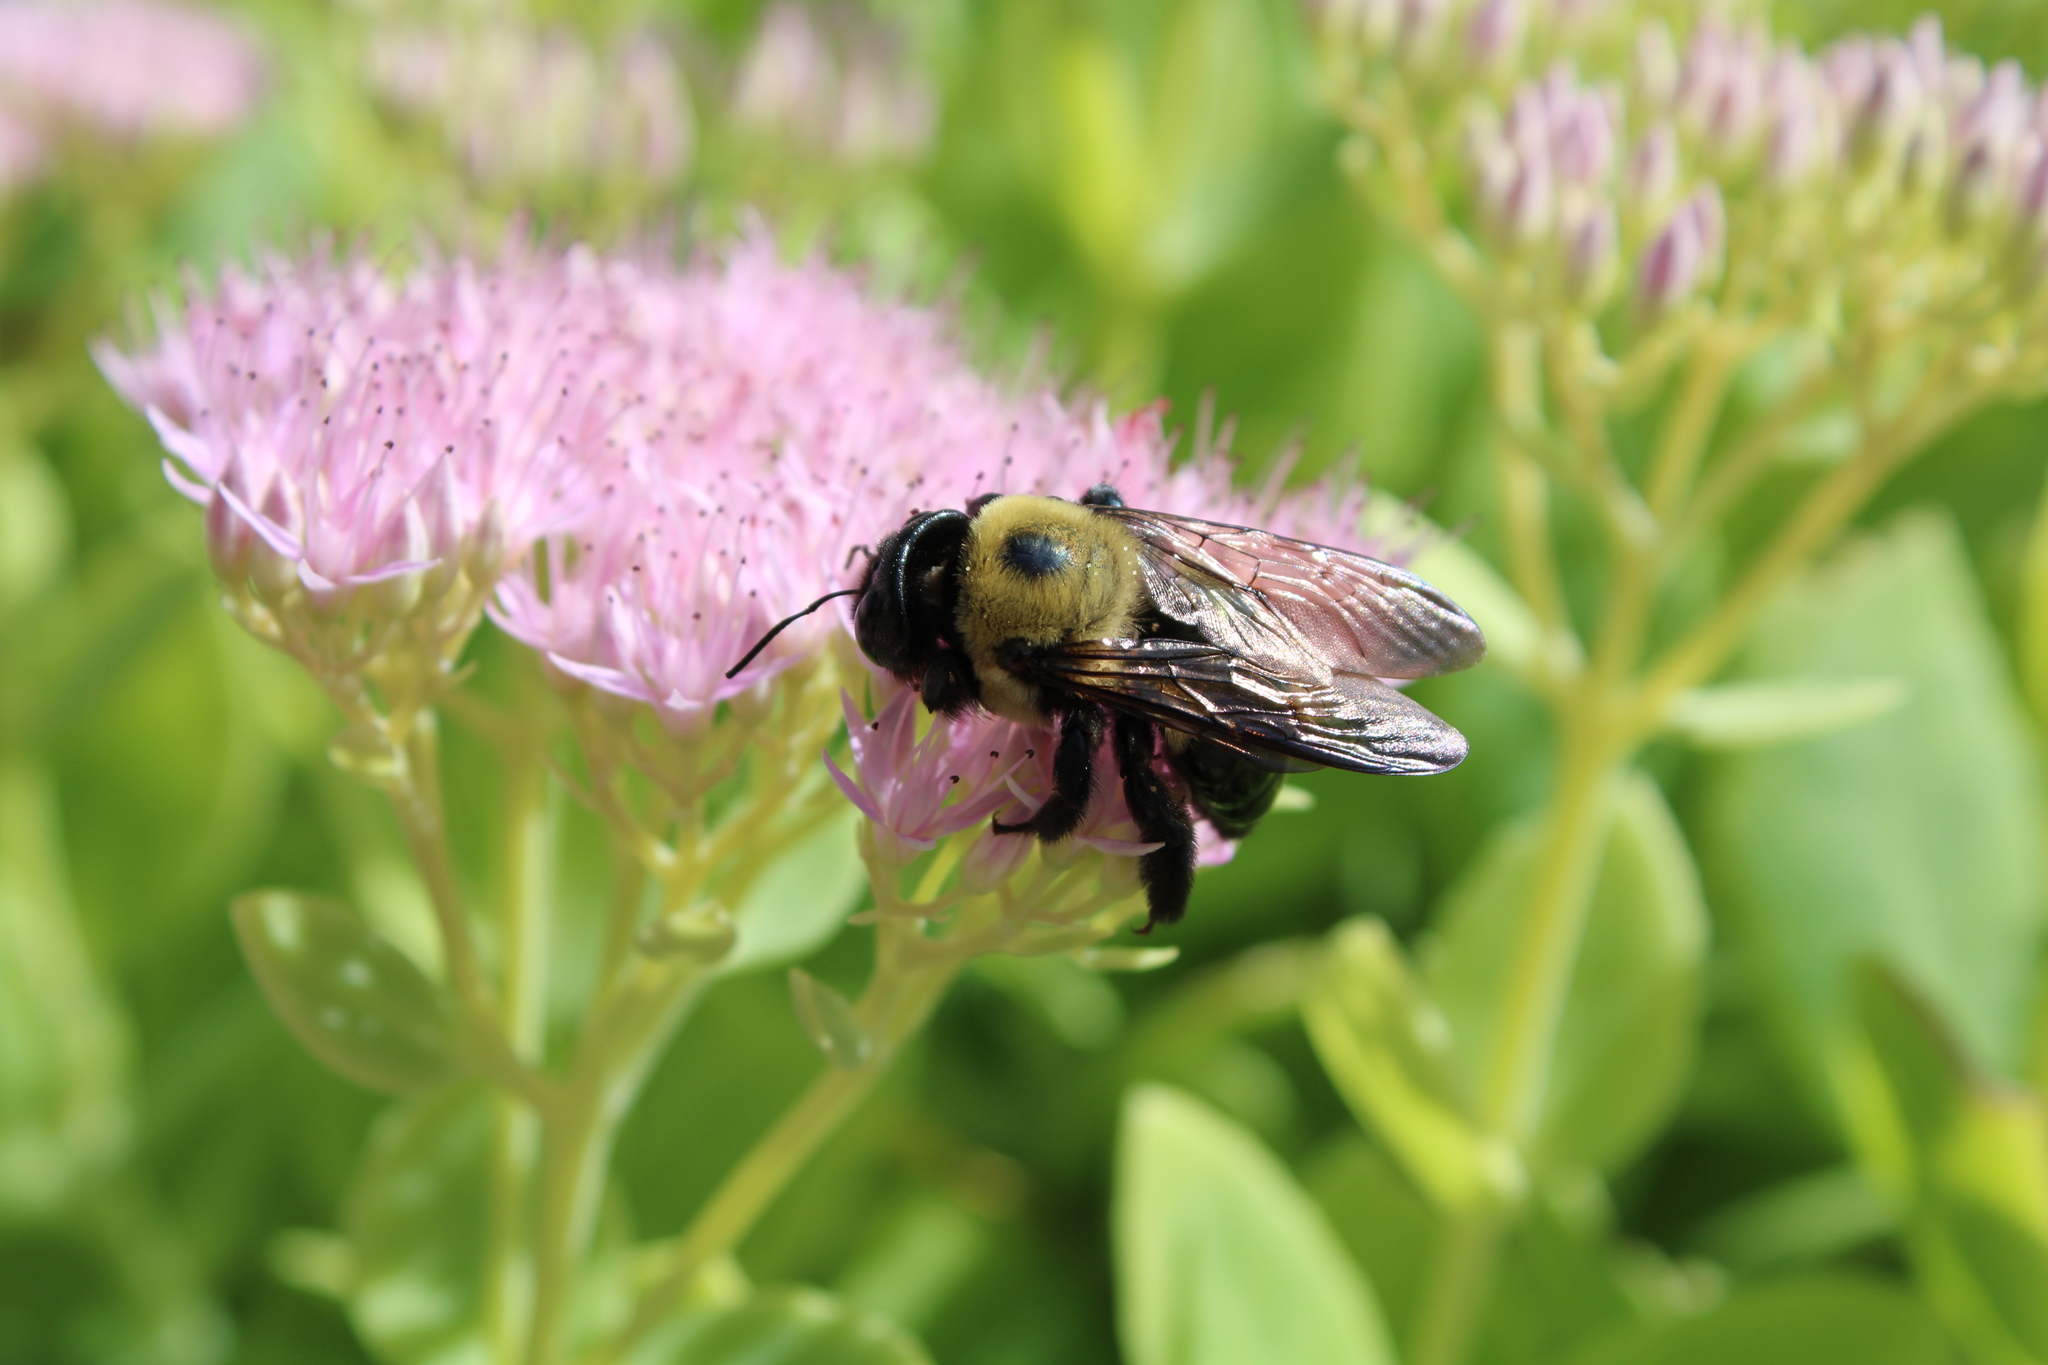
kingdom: Animalia
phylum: Arthropoda
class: Insecta
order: Hymenoptera
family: Apidae
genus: Xylocopa
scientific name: Xylocopa virginica
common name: Carpenter bee
